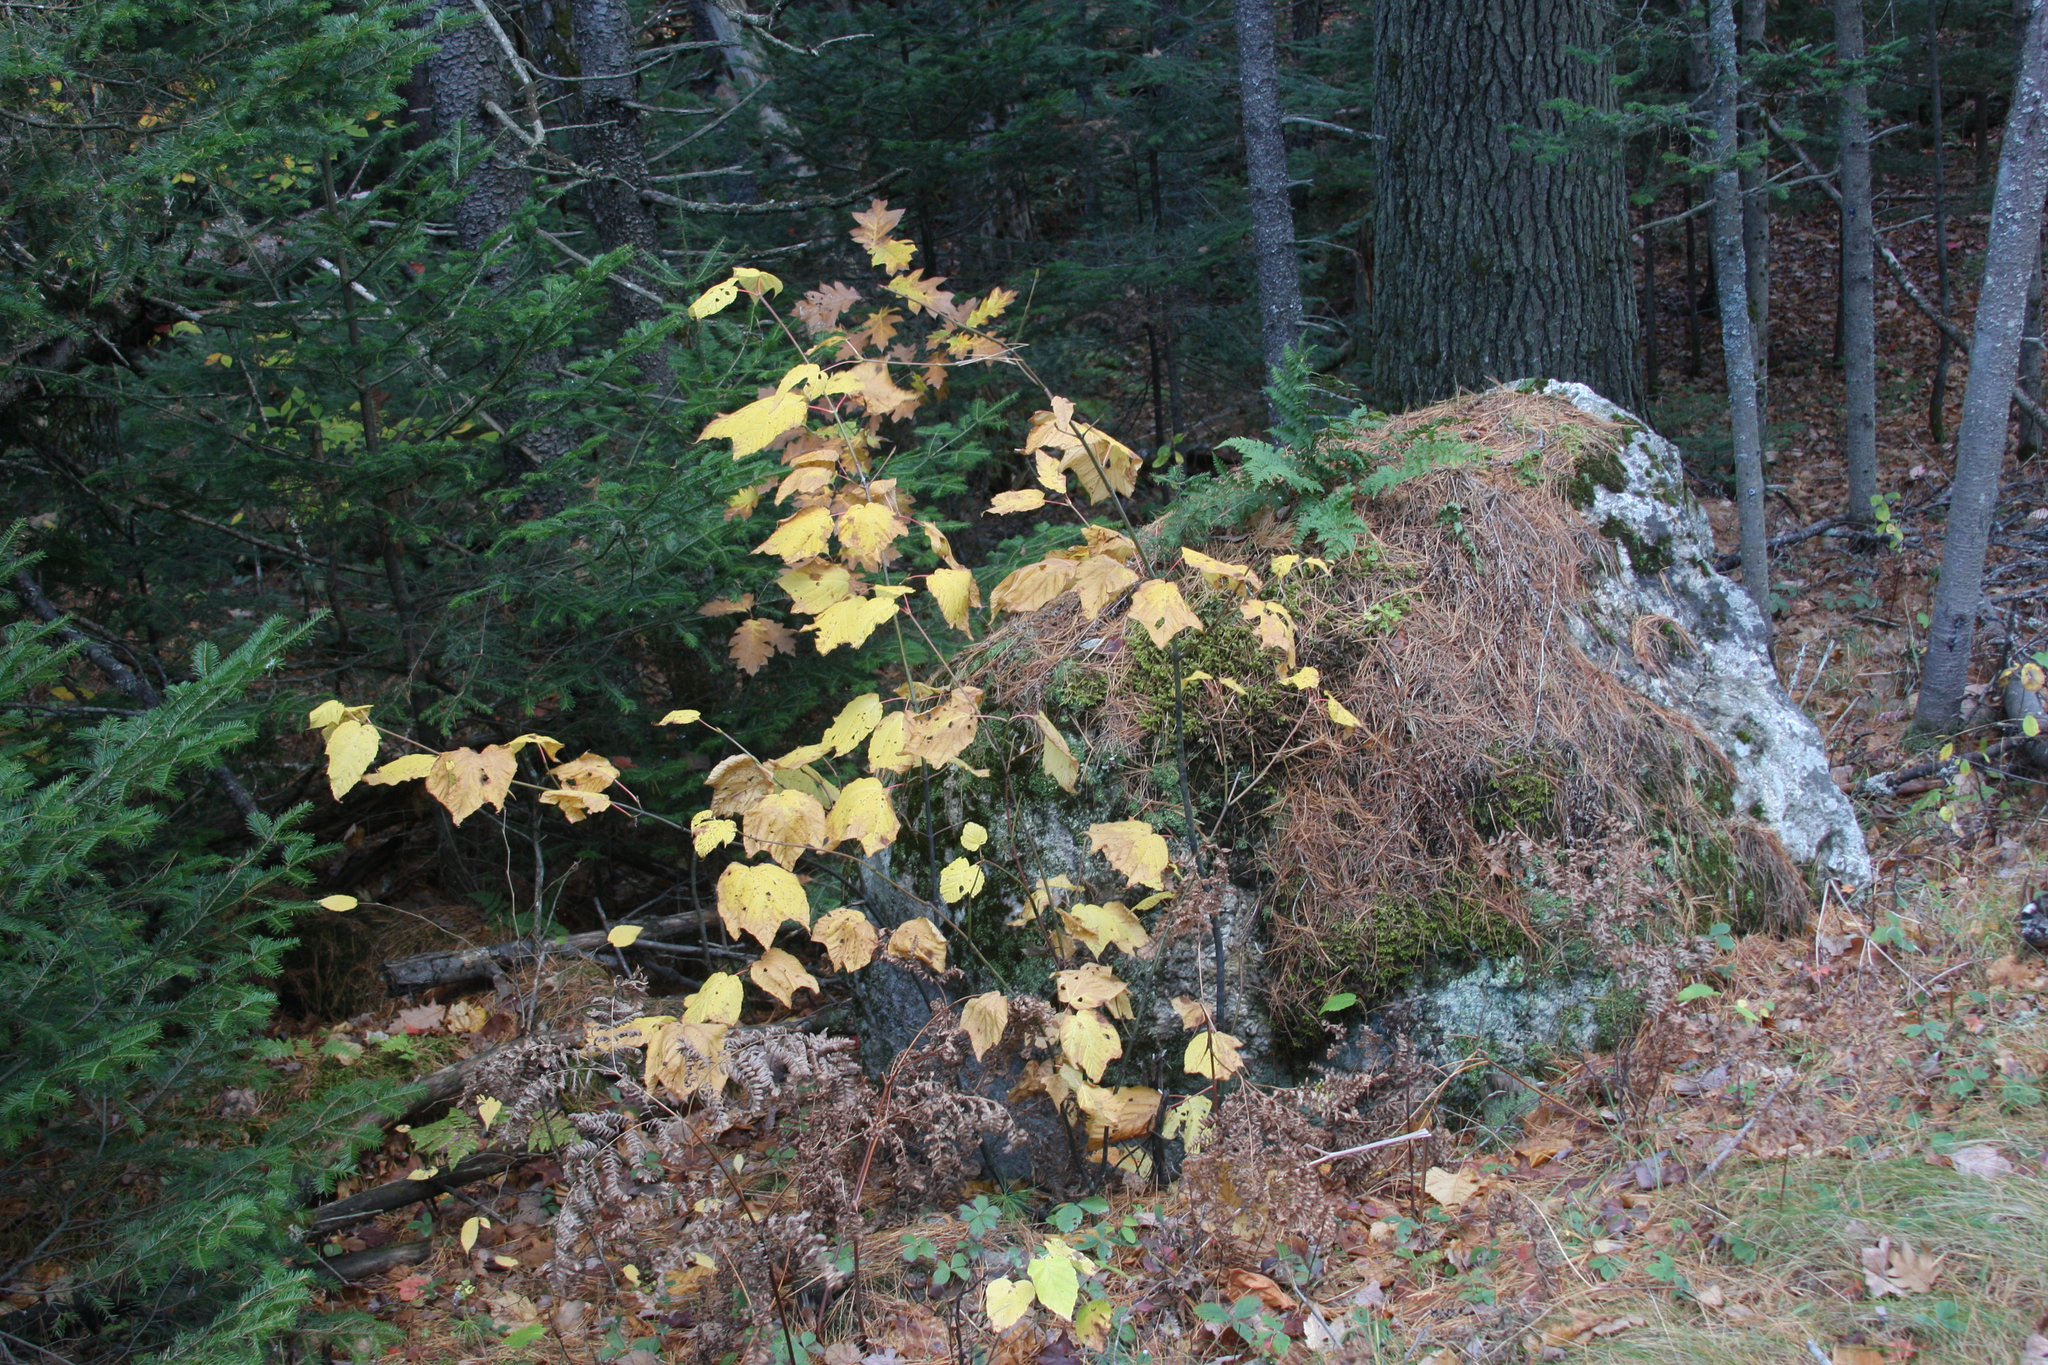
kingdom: Plantae
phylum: Tracheophyta
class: Magnoliopsida
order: Sapindales
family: Sapindaceae
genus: Acer
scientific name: Acer pensylvanicum
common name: Moosewood
